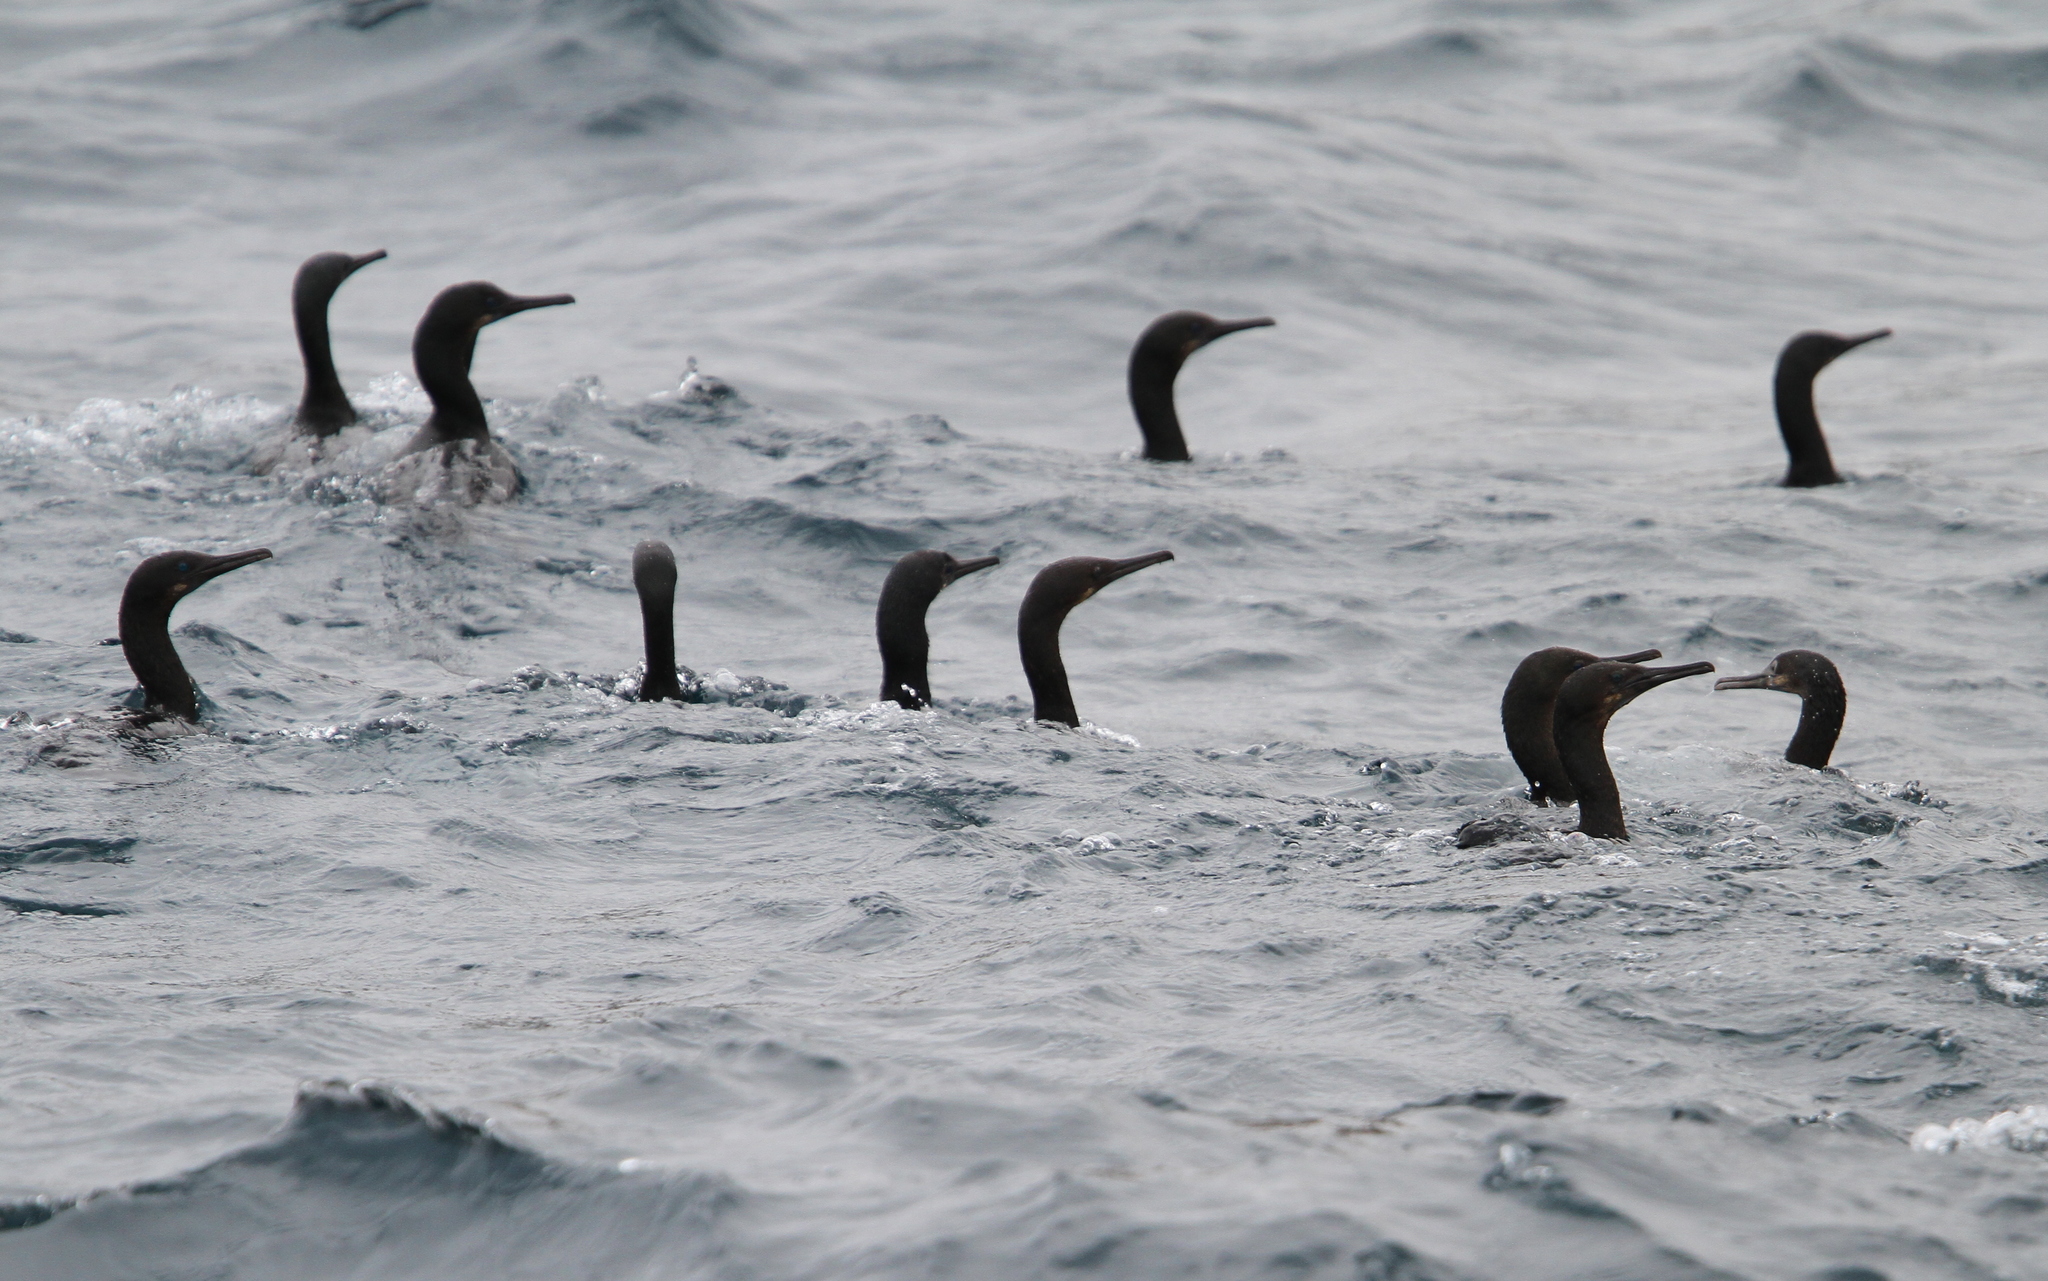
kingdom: Animalia
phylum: Chordata
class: Aves
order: Suliformes
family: Phalacrocoracidae
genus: Urile
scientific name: Urile penicillatus
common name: Brandt's cormorant
